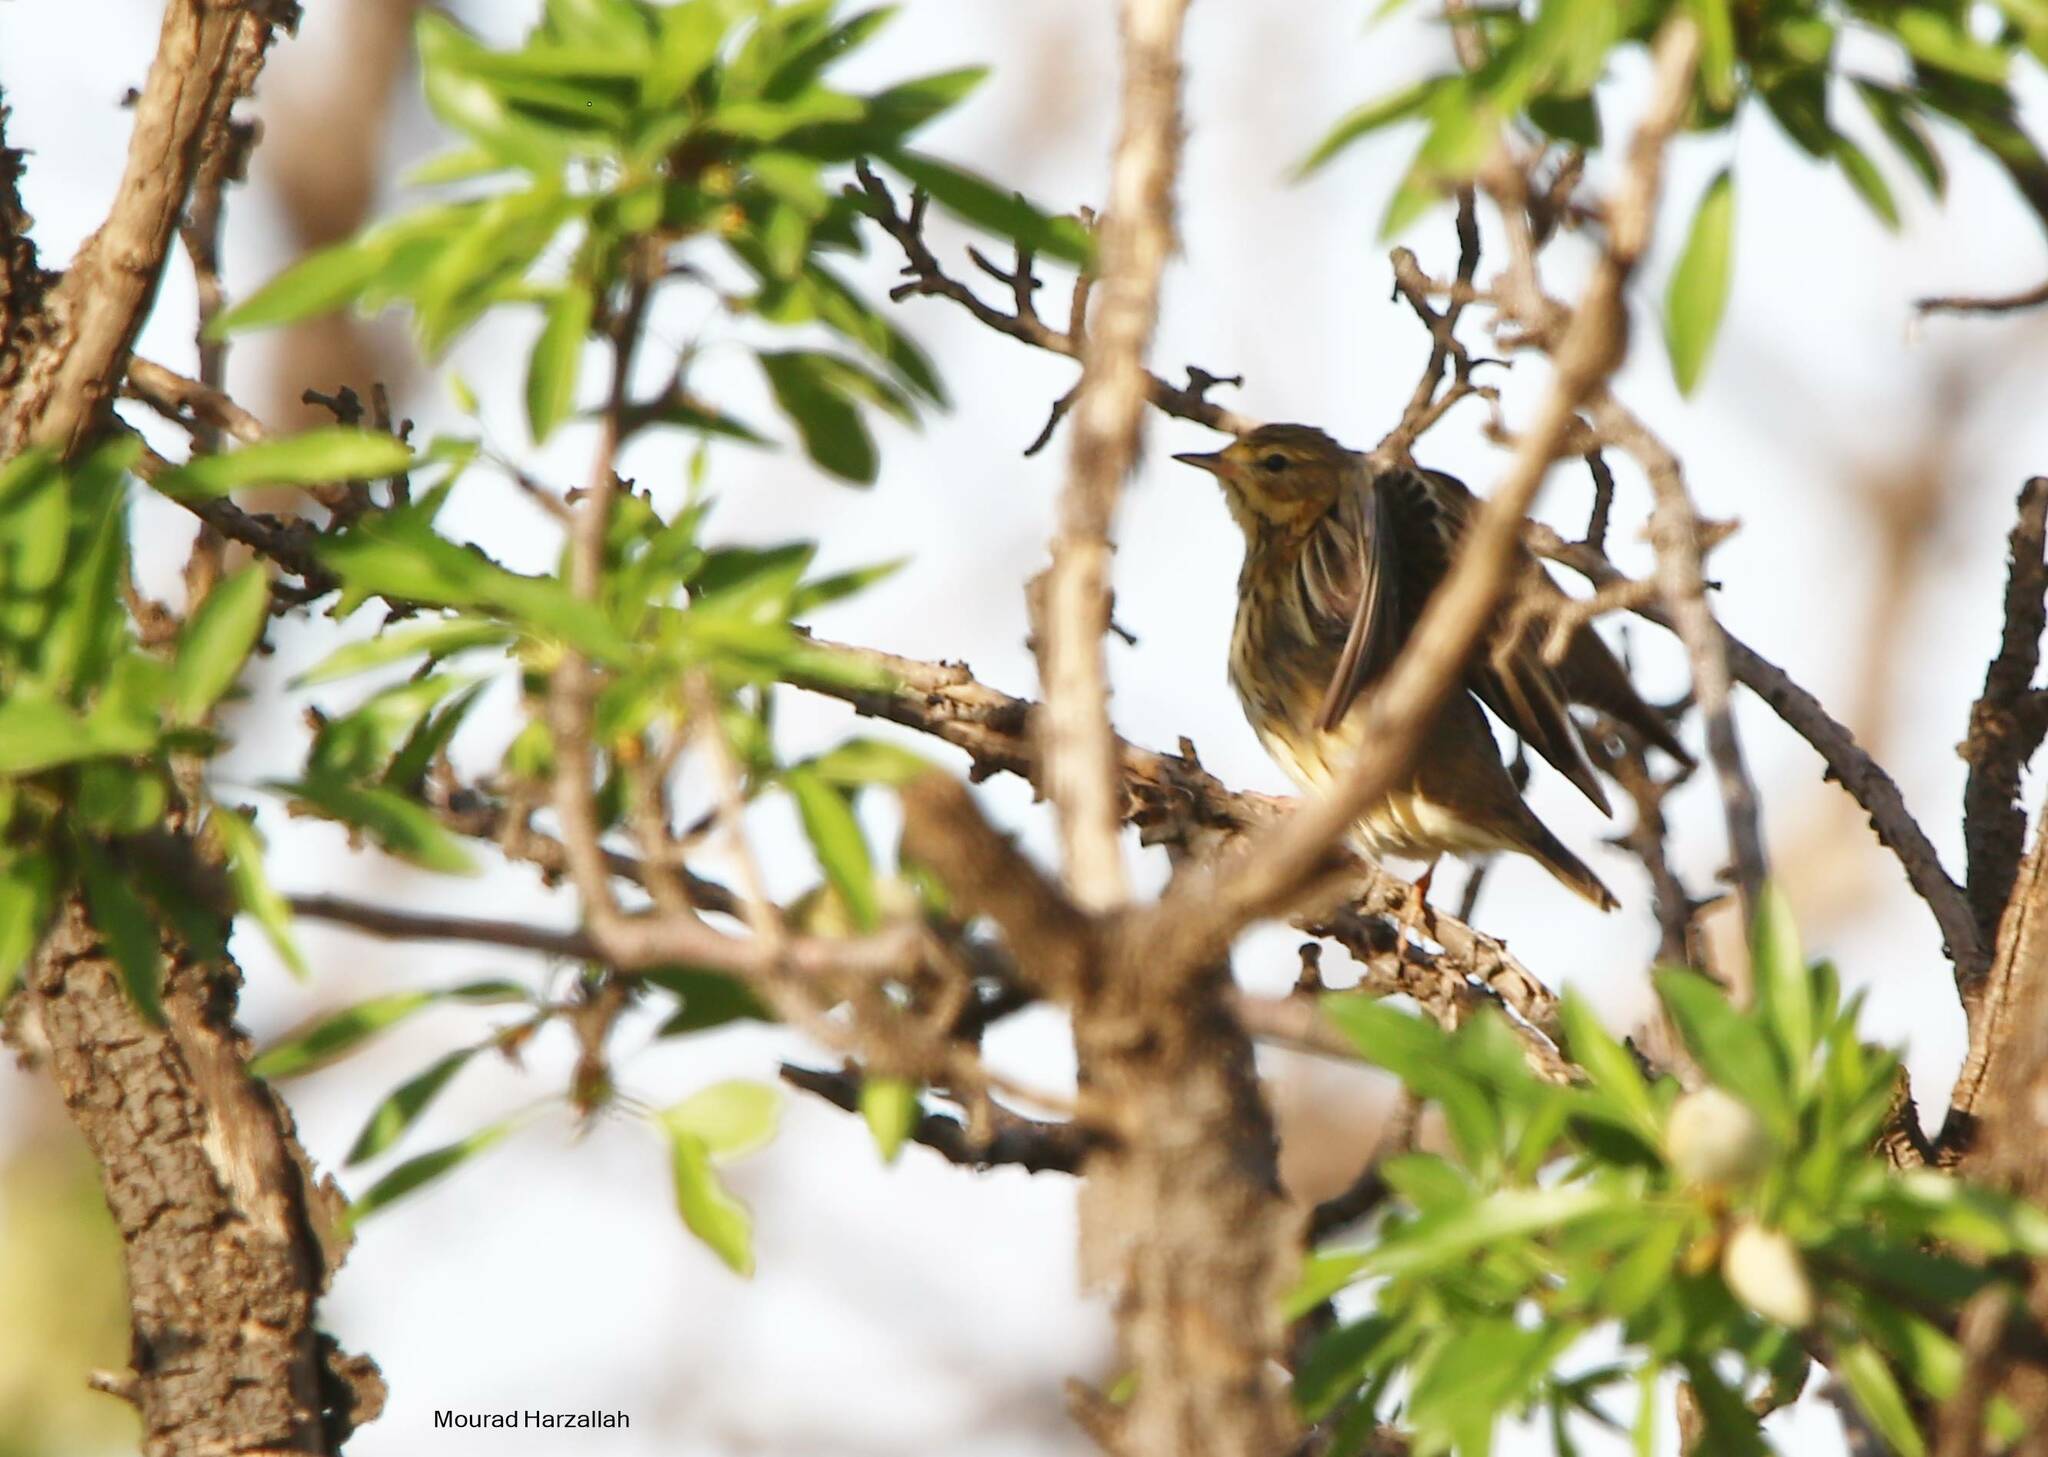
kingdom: Animalia
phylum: Chordata
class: Aves
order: Passeriformes
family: Motacillidae
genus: Anthus
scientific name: Anthus trivialis
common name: Tree pipit
